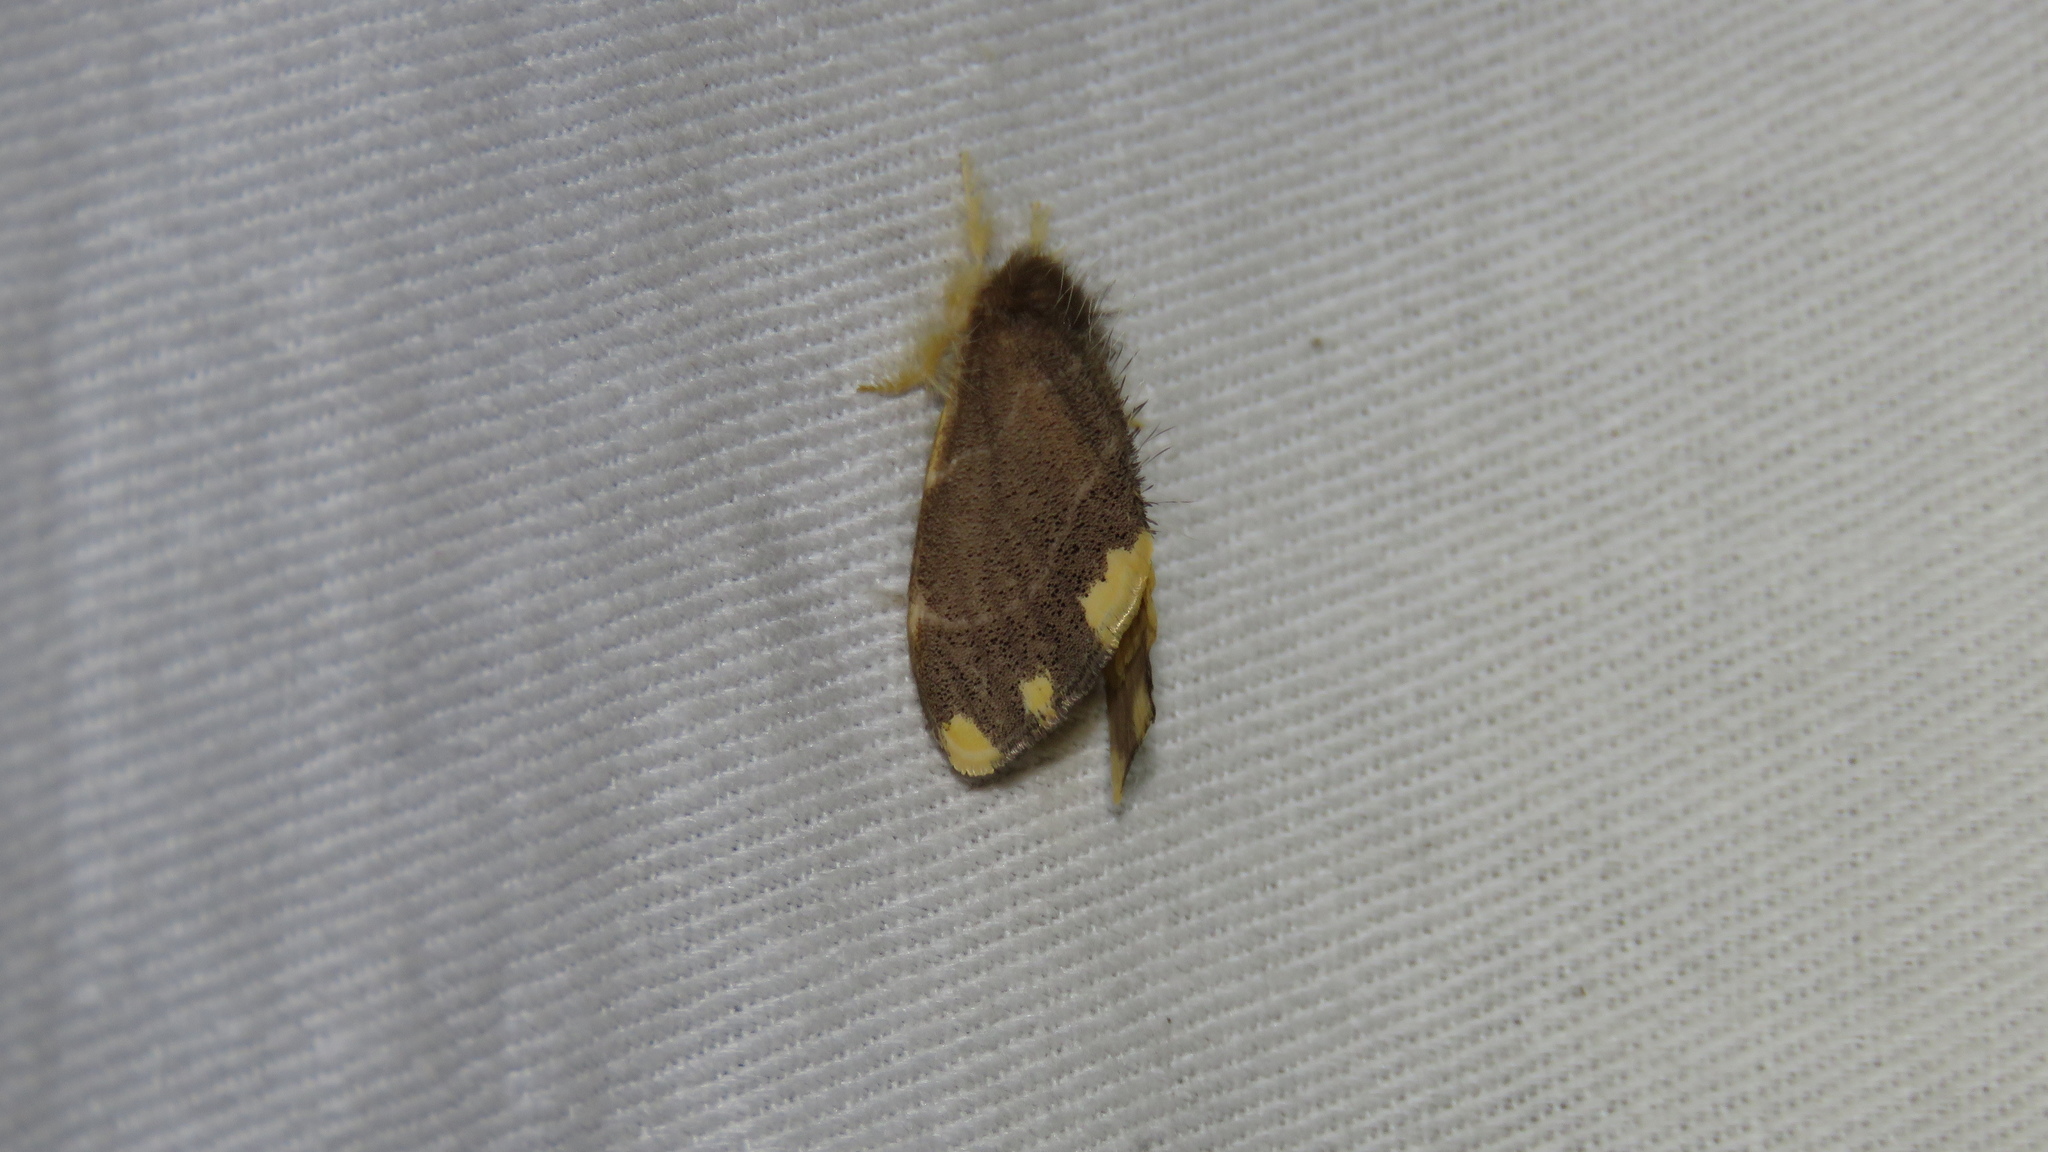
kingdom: Animalia
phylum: Arthropoda
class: Insecta
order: Lepidoptera
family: Erebidae
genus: Orvasca
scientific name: Orvasca bicolor
